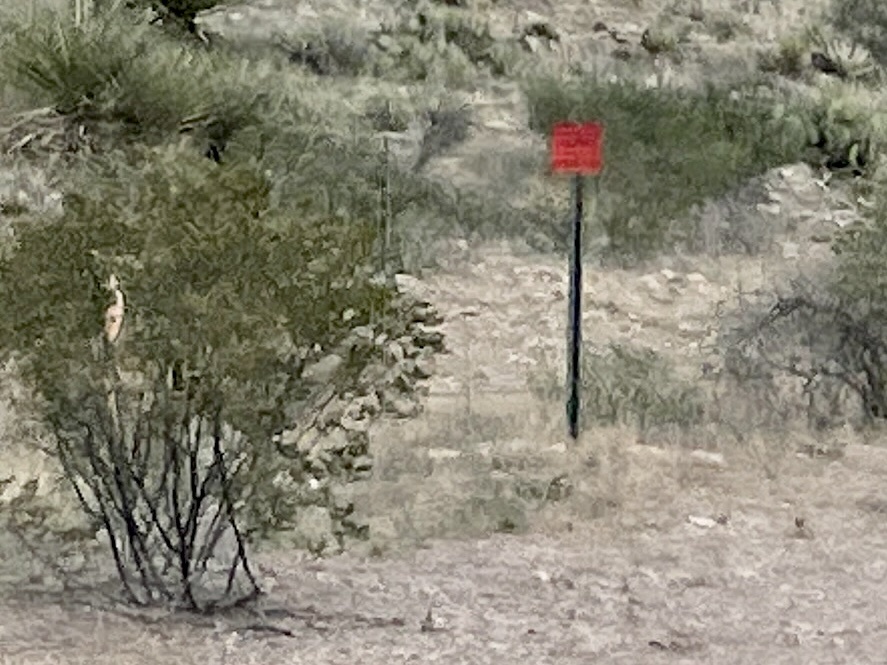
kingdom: Plantae
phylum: Tracheophyta
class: Magnoliopsida
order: Zygophyllales
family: Zygophyllaceae
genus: Larrea
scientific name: Larrea tridentata
